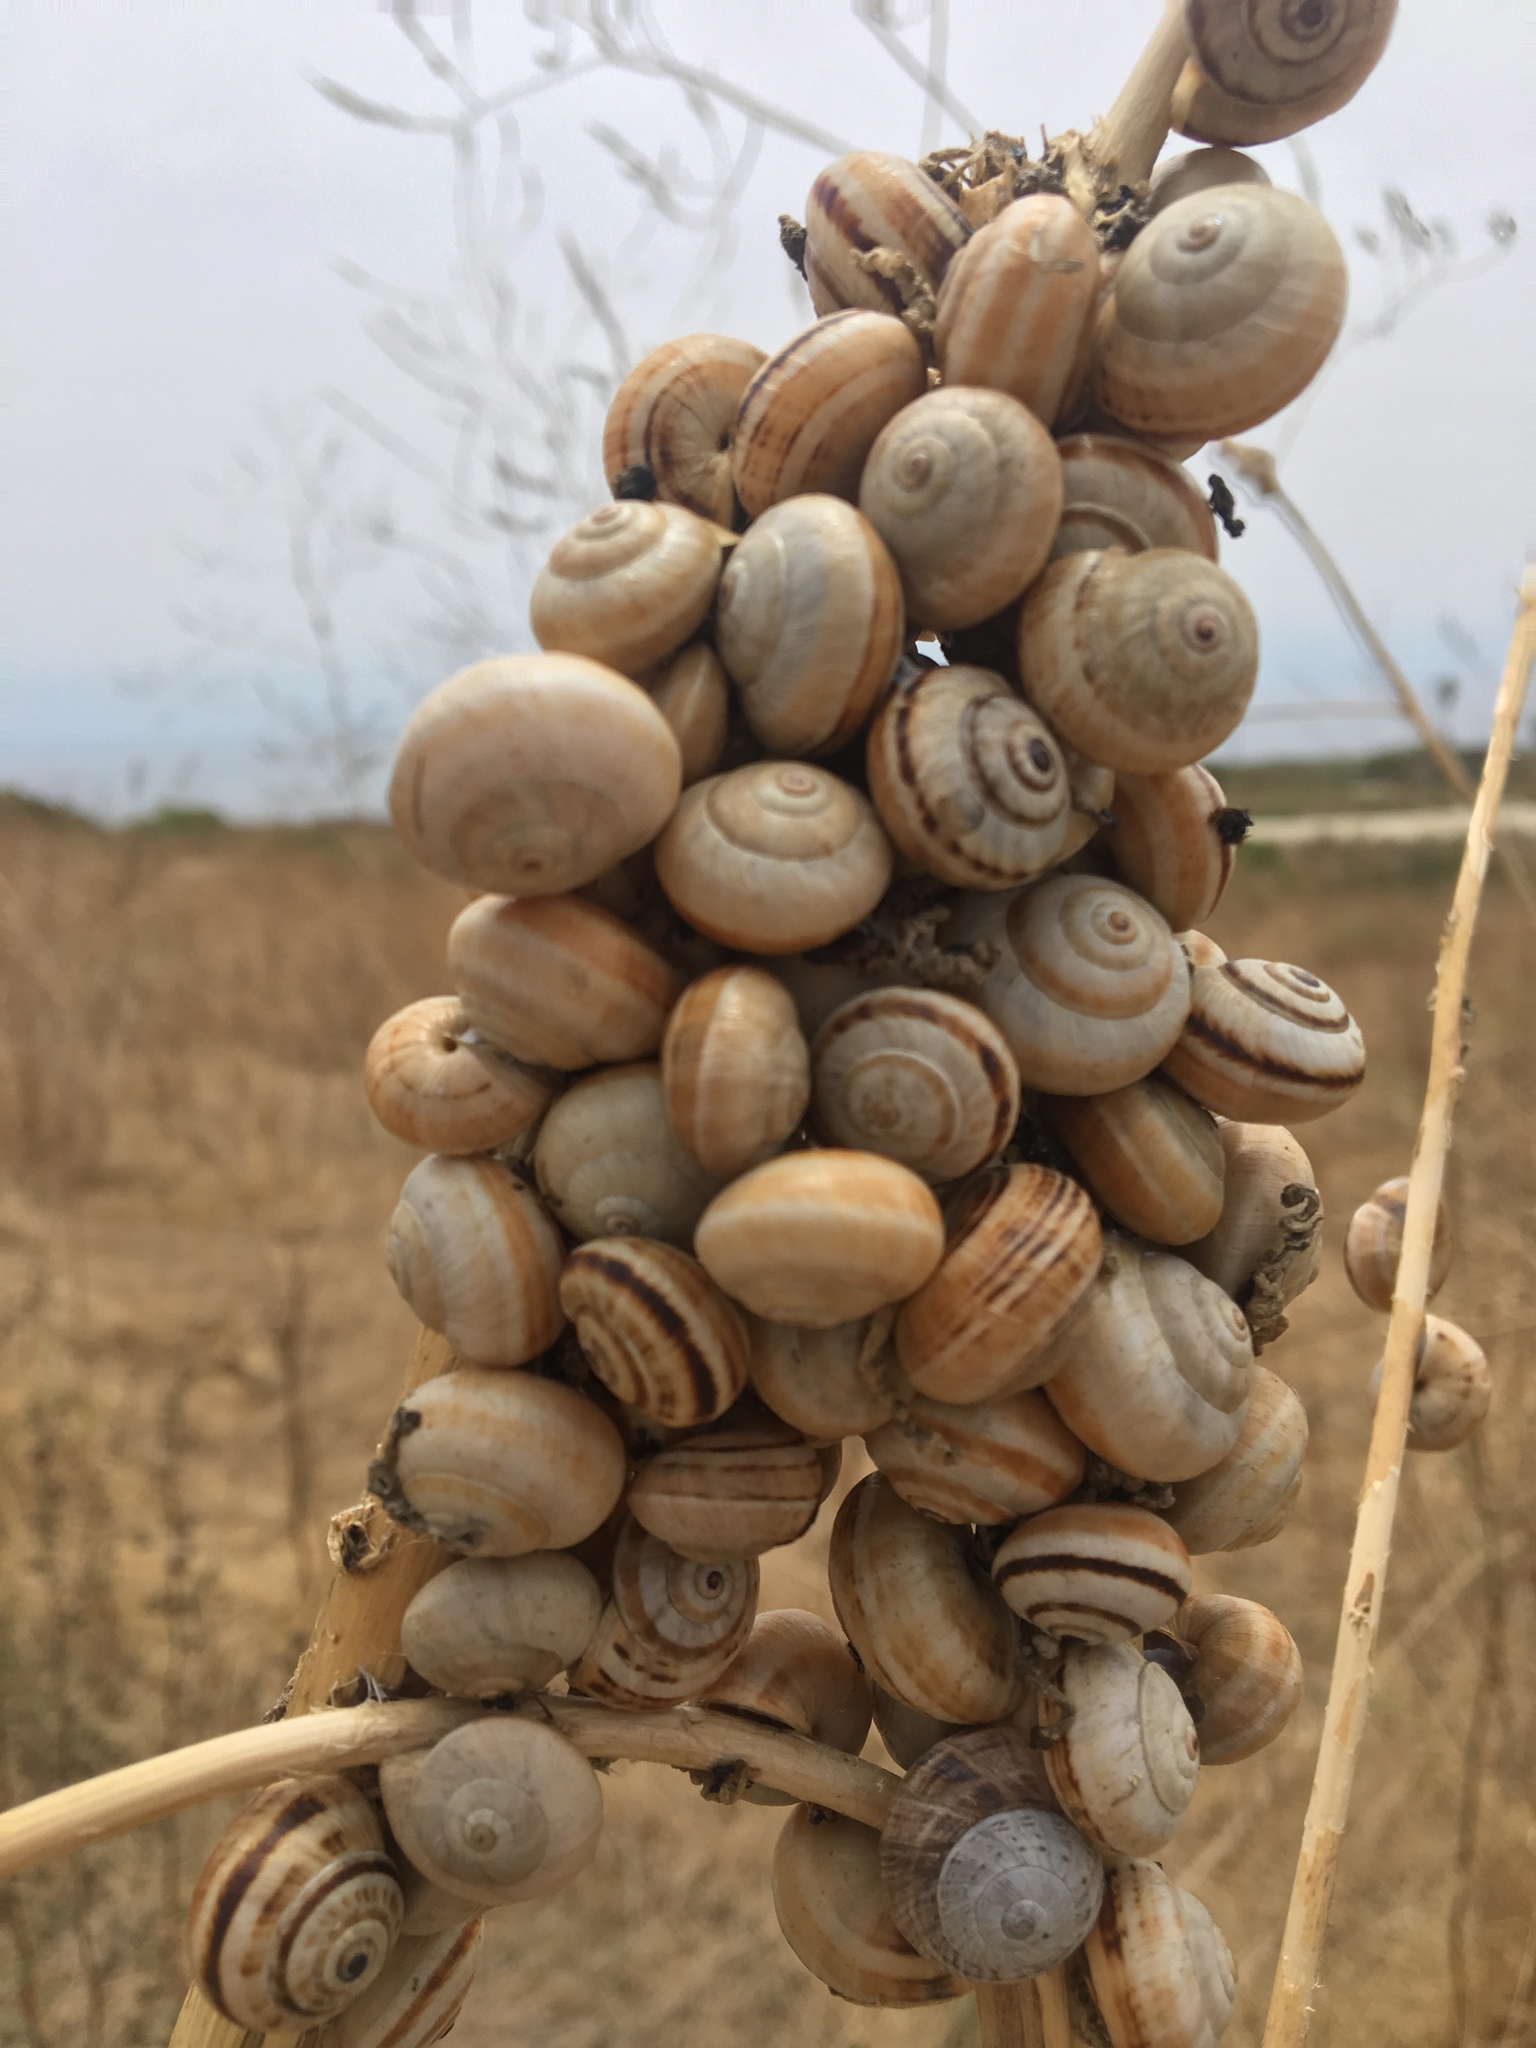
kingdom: Animalia
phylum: Mollusca
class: Gastropoda
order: Stylommatophora
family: Helicidae
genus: Theba
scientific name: Theba pisana
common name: White snail
